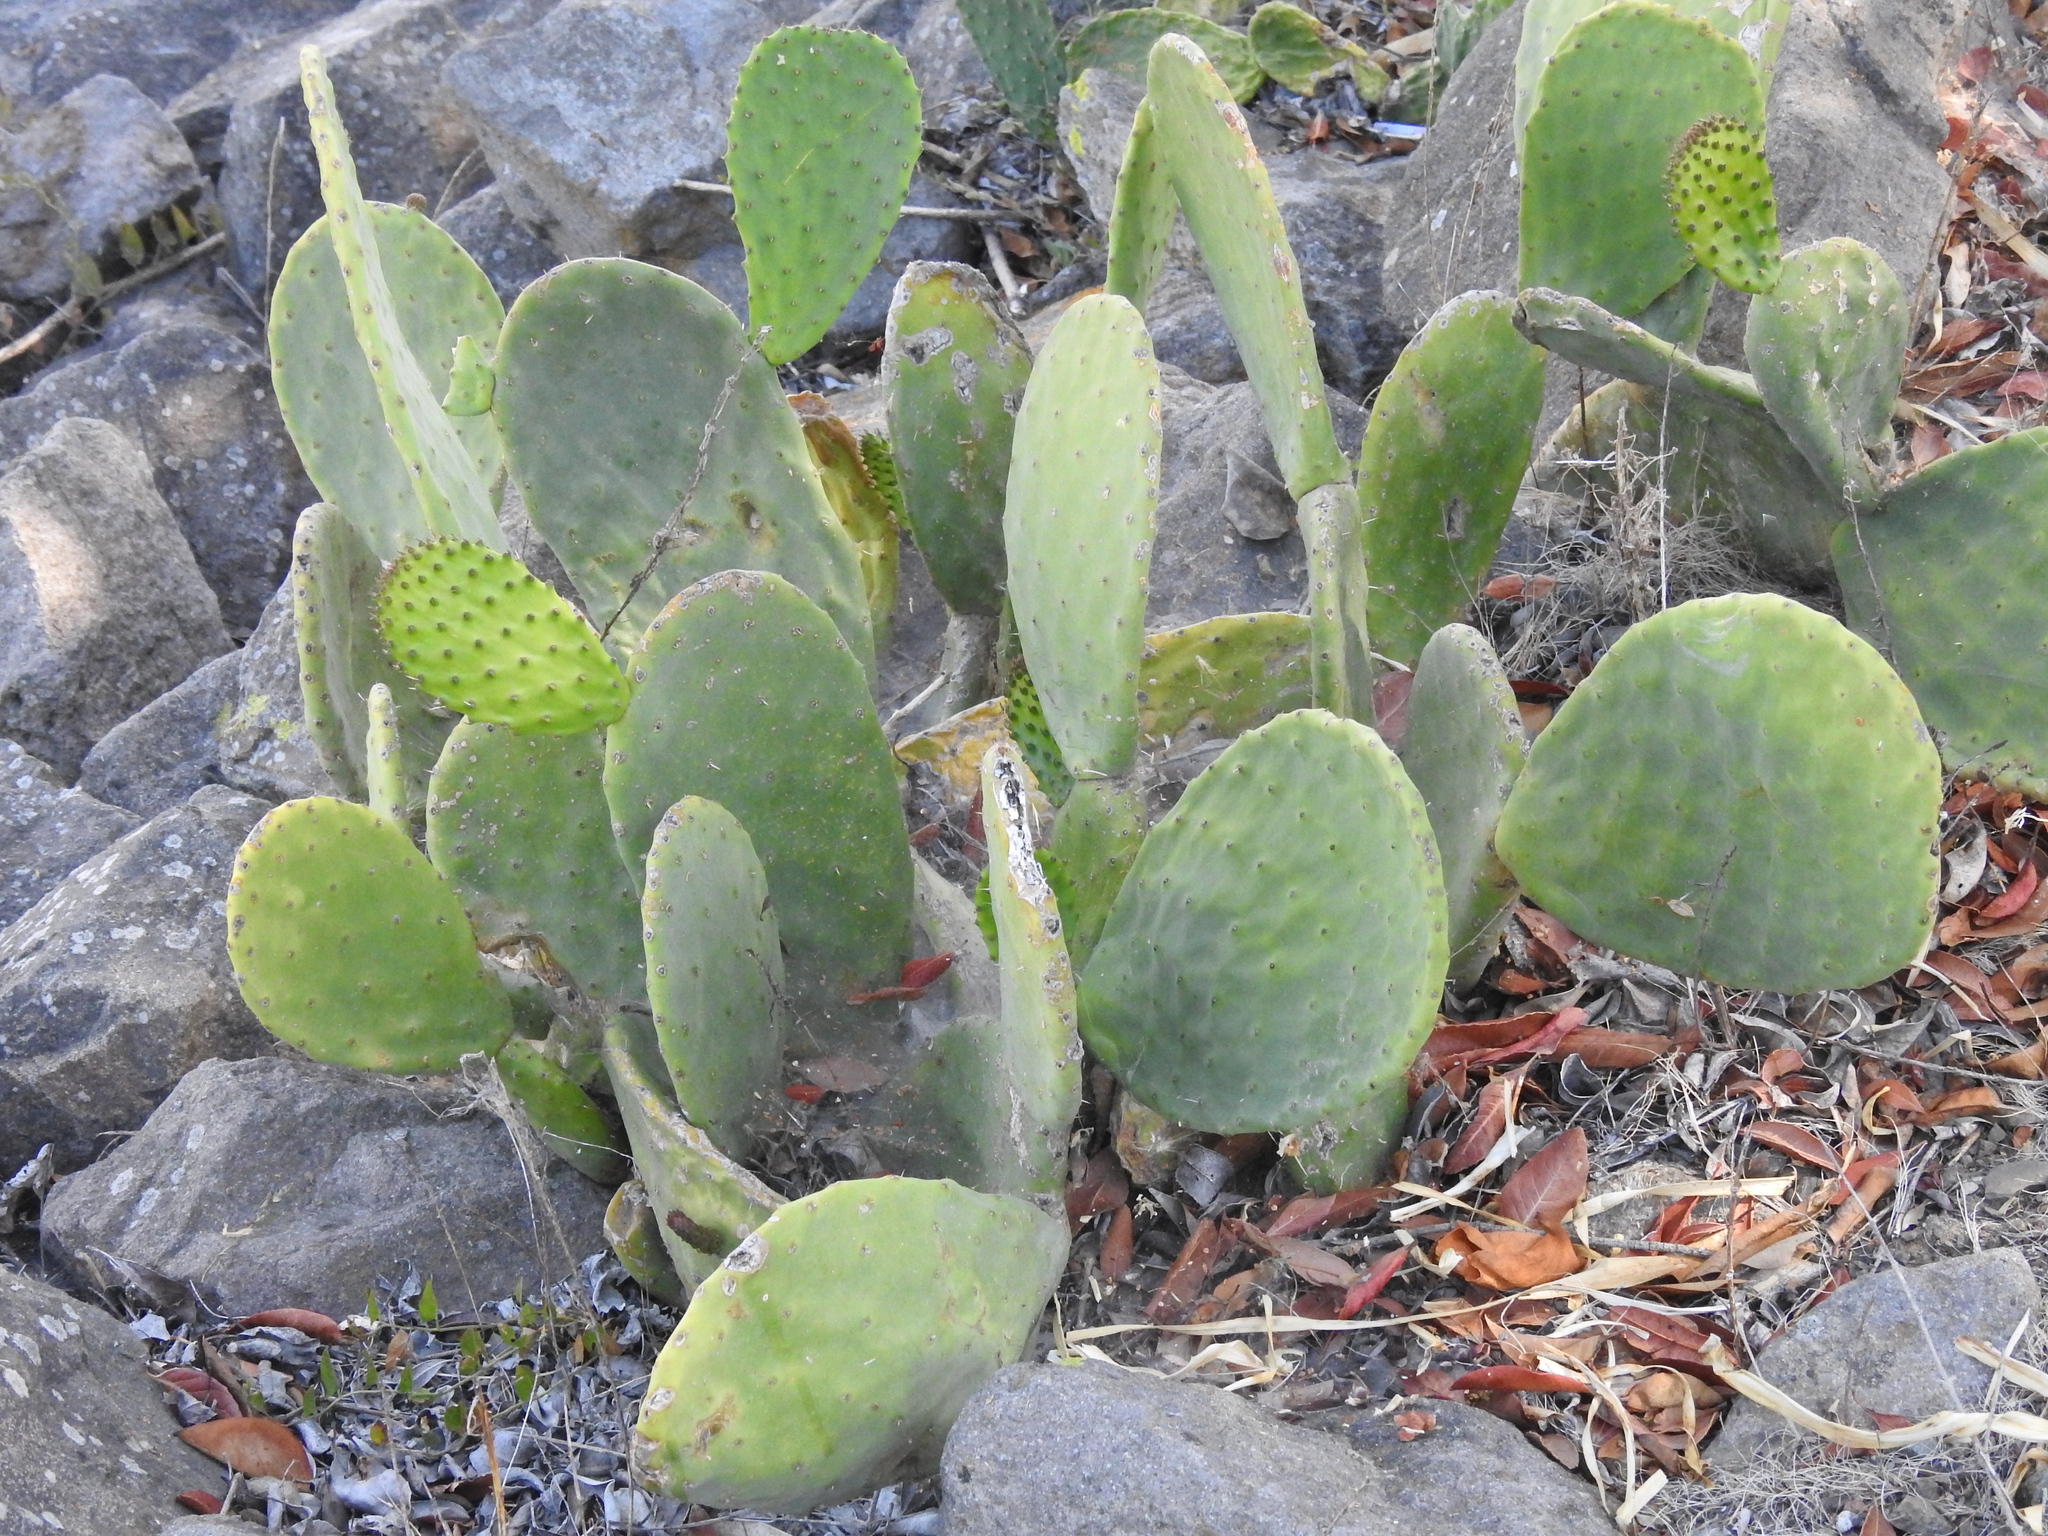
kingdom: Plantae
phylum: Tracheophyta
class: Magnoliopsida
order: Caryophyllales
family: Cactaceae
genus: Opuntia
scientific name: Opuntia ficus-indica
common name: Barbary fig
